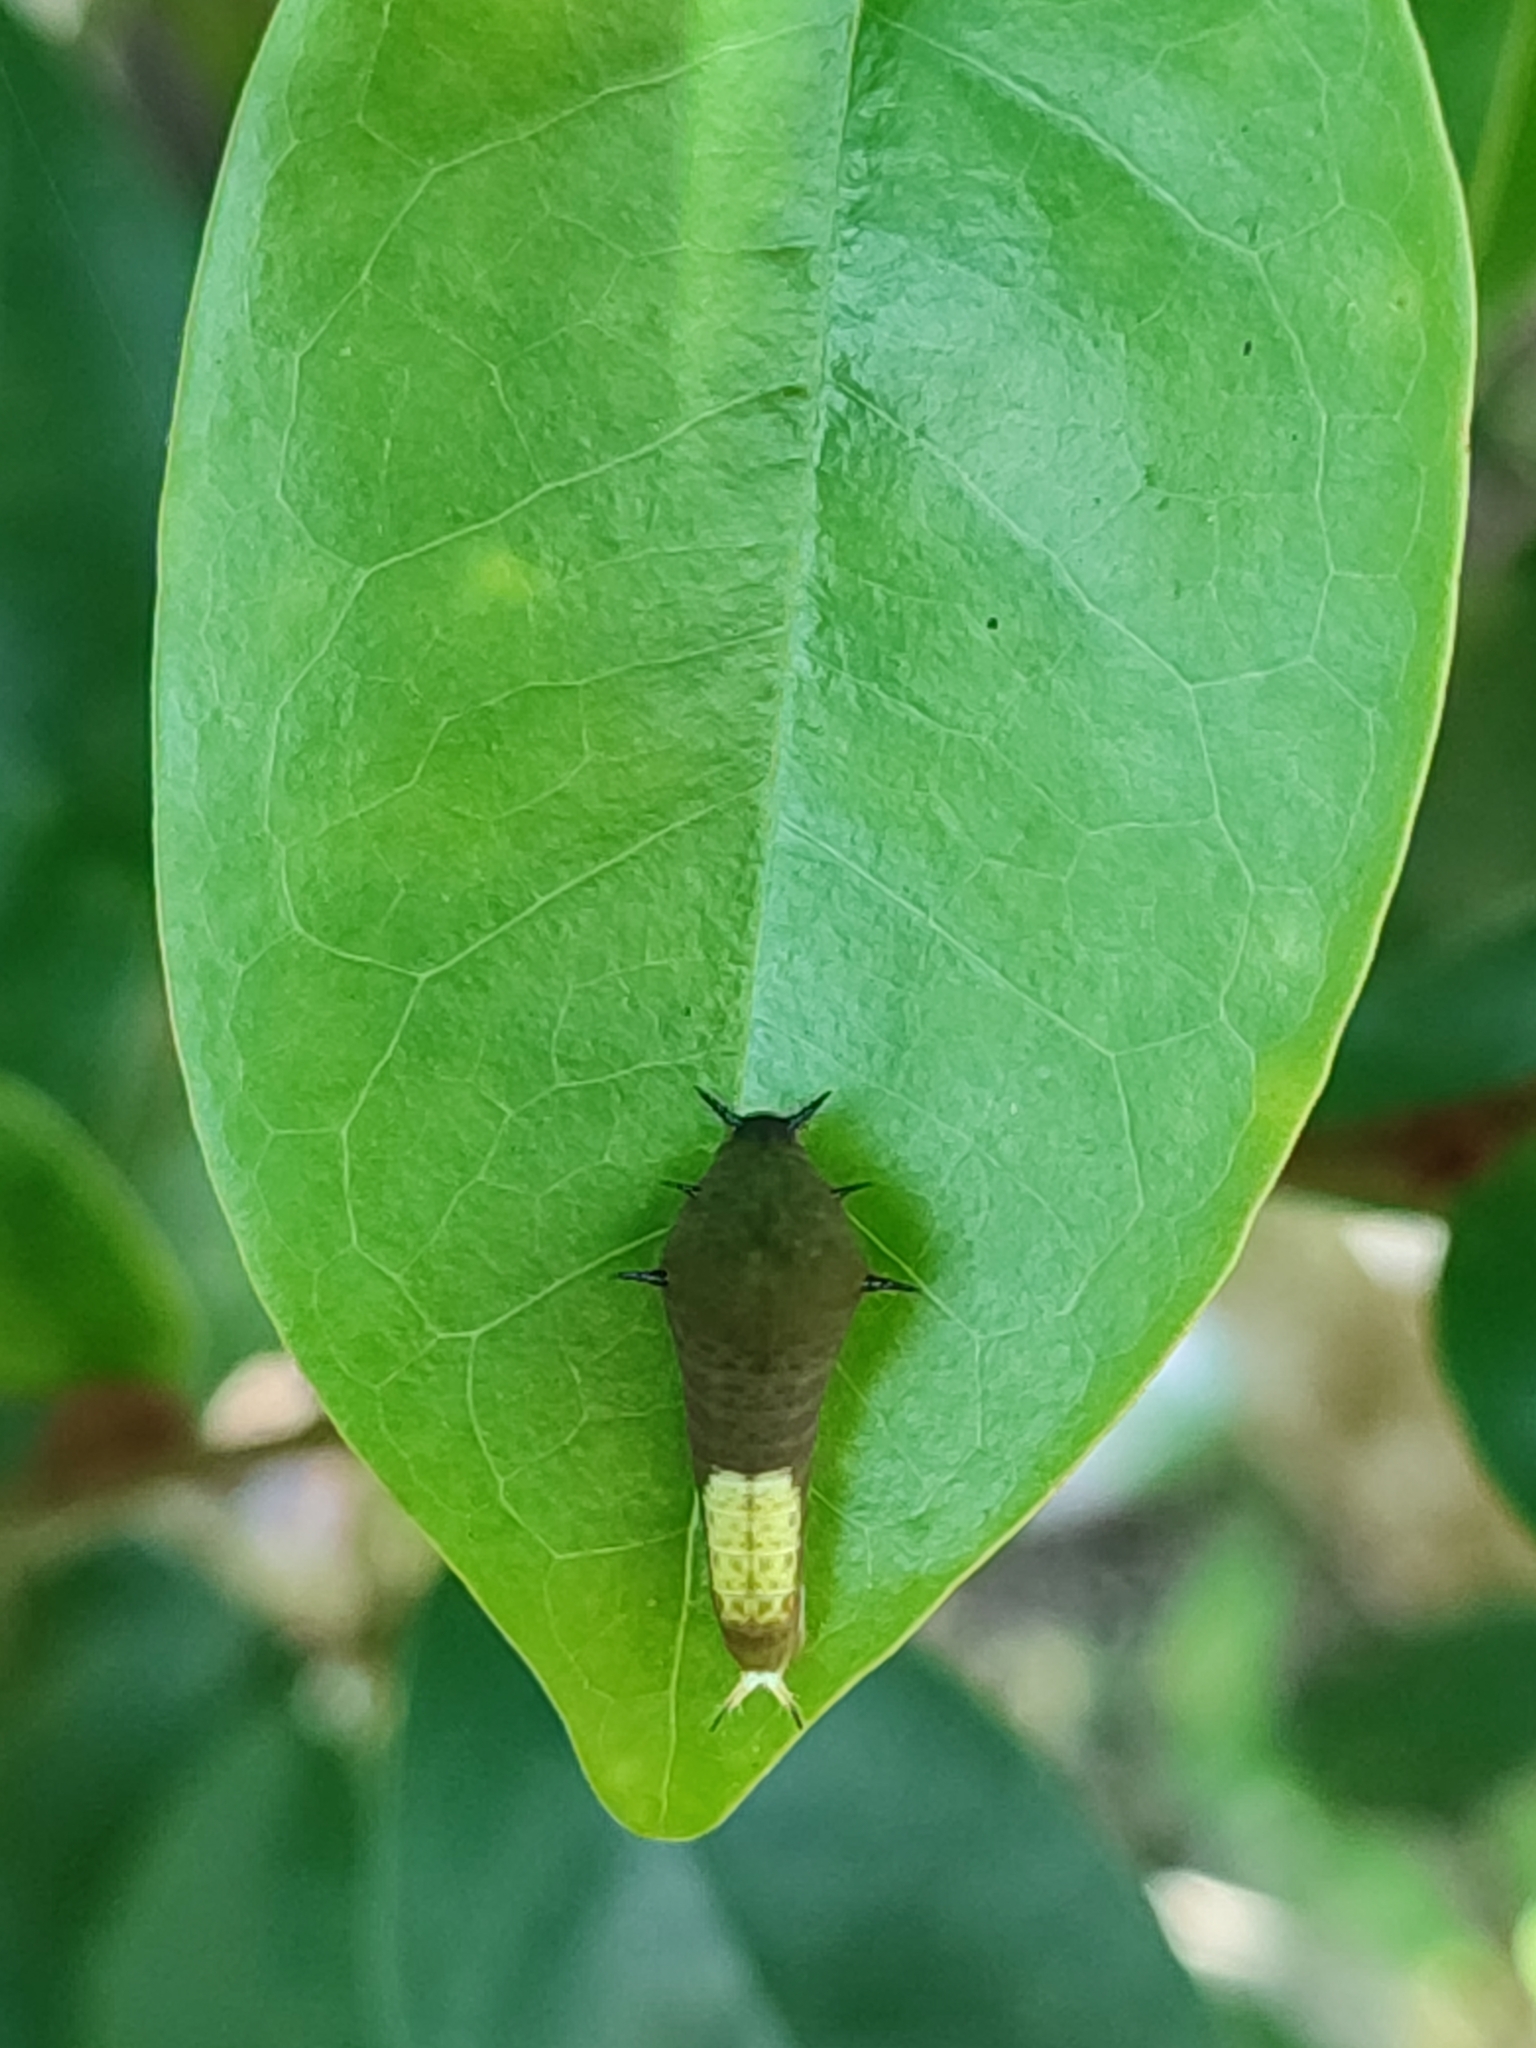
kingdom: Animalia
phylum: Arthropoda
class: Insecta
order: Lepidoptera
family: Papilionidae
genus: Graphium
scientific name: Graphium agamemnon
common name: Tailed jay
